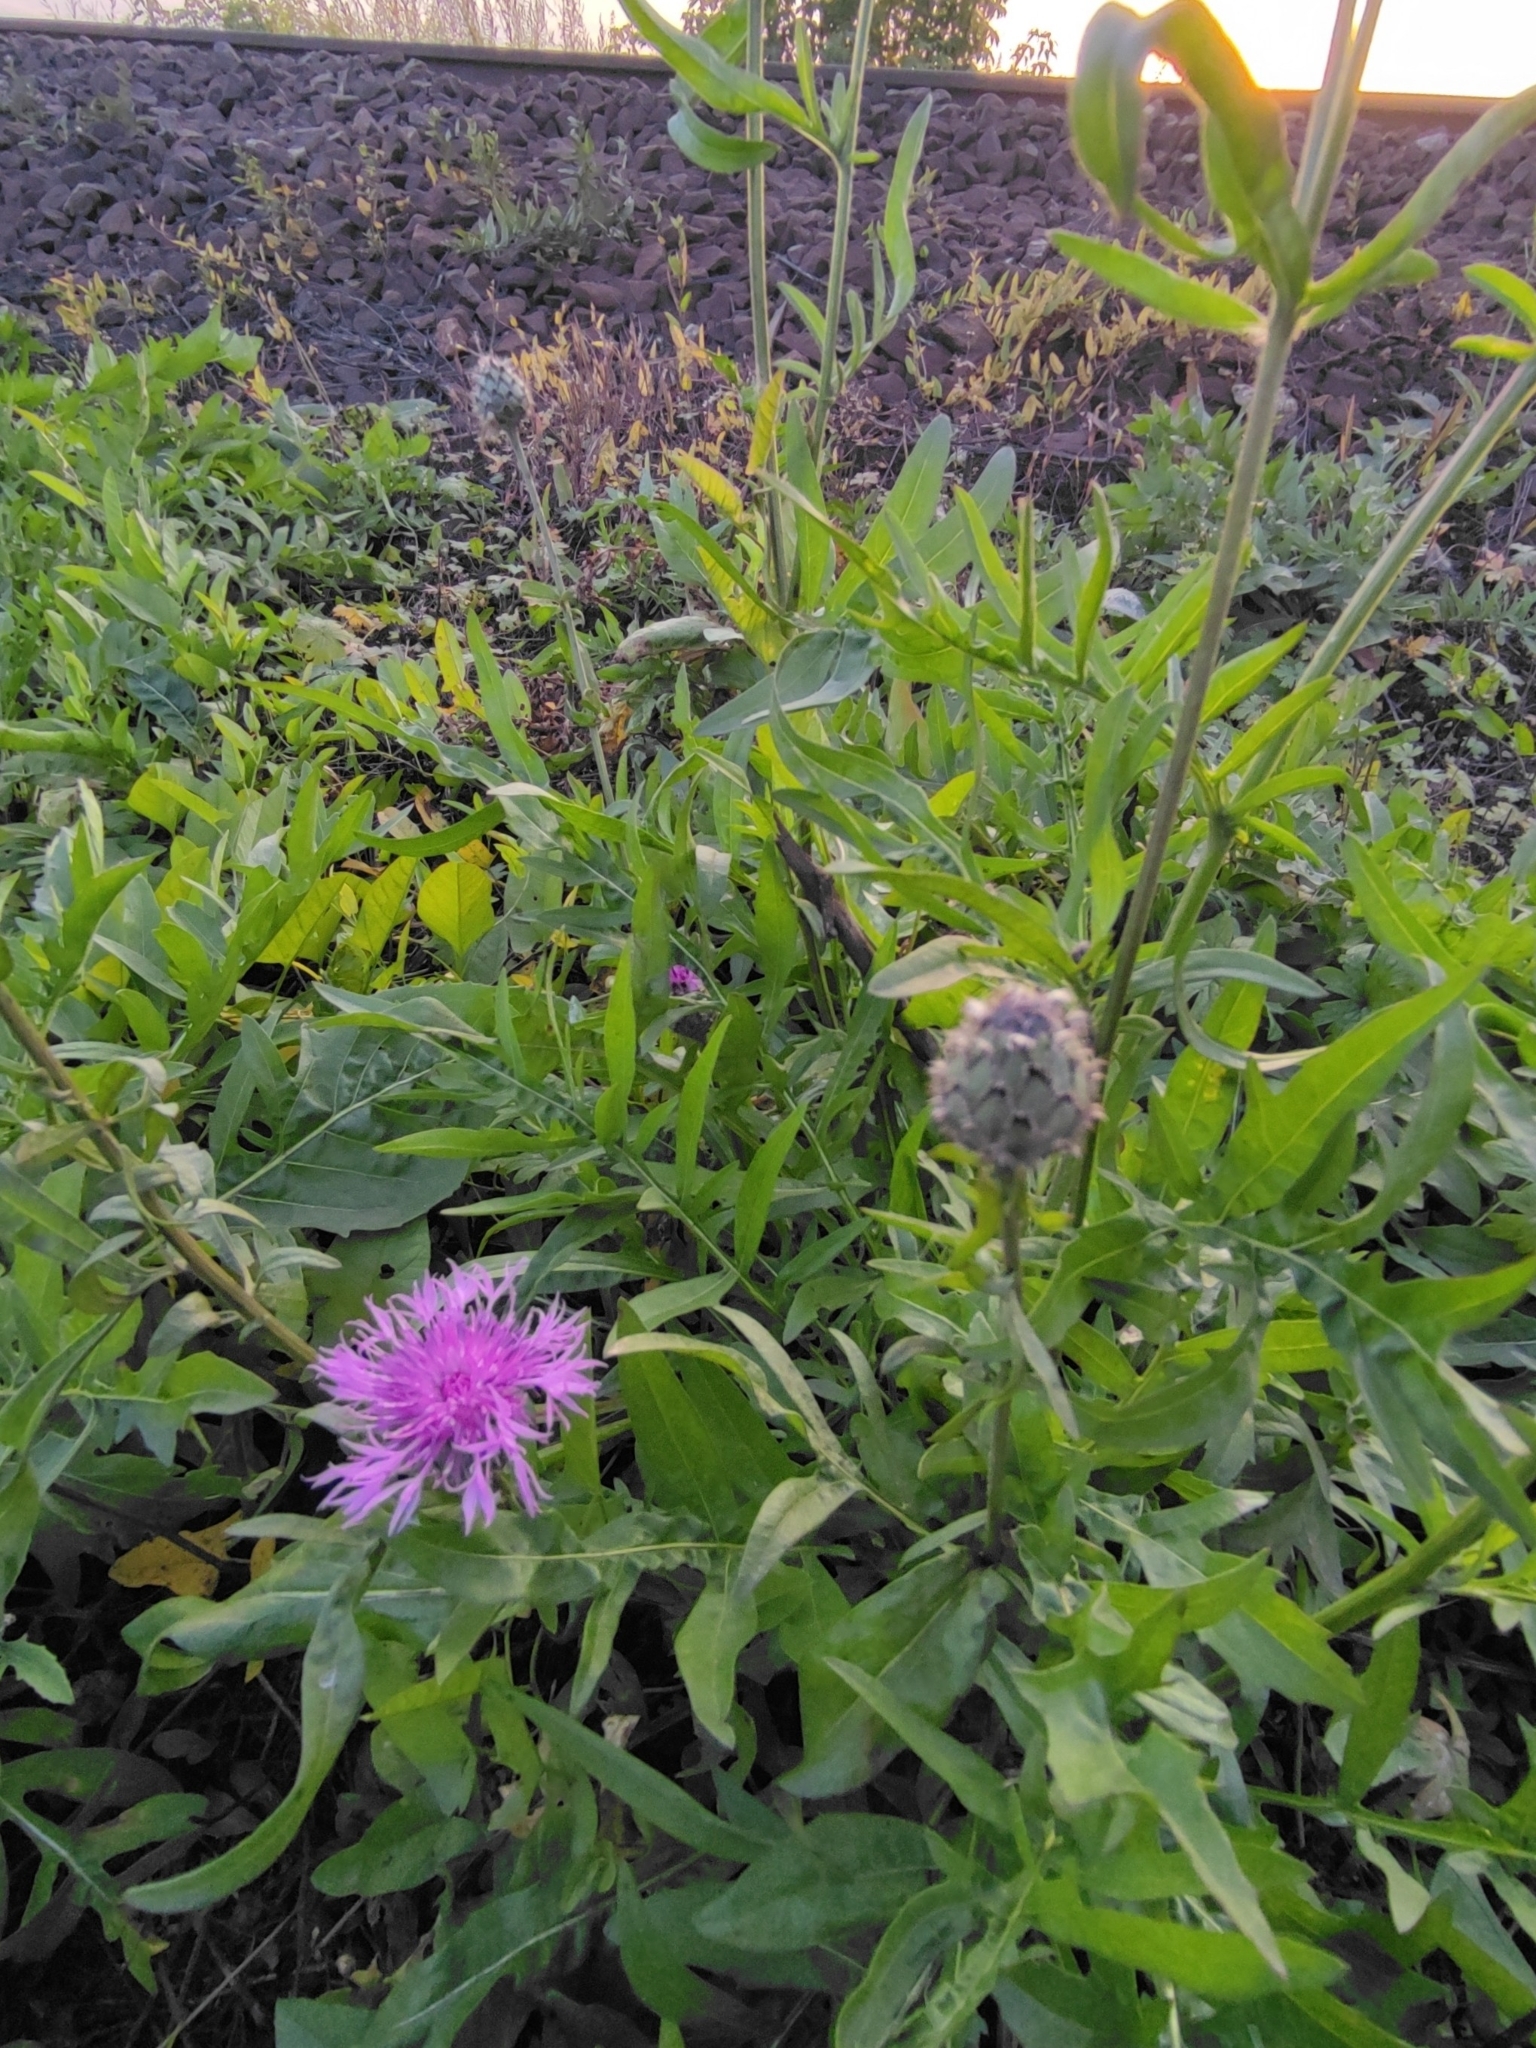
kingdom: Plantae
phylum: Tracheophyta
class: Magnoliopsida
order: Asterales
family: Asteraceae
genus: Centaurea
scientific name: Centaurea scabiosa
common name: Greater knapweed
